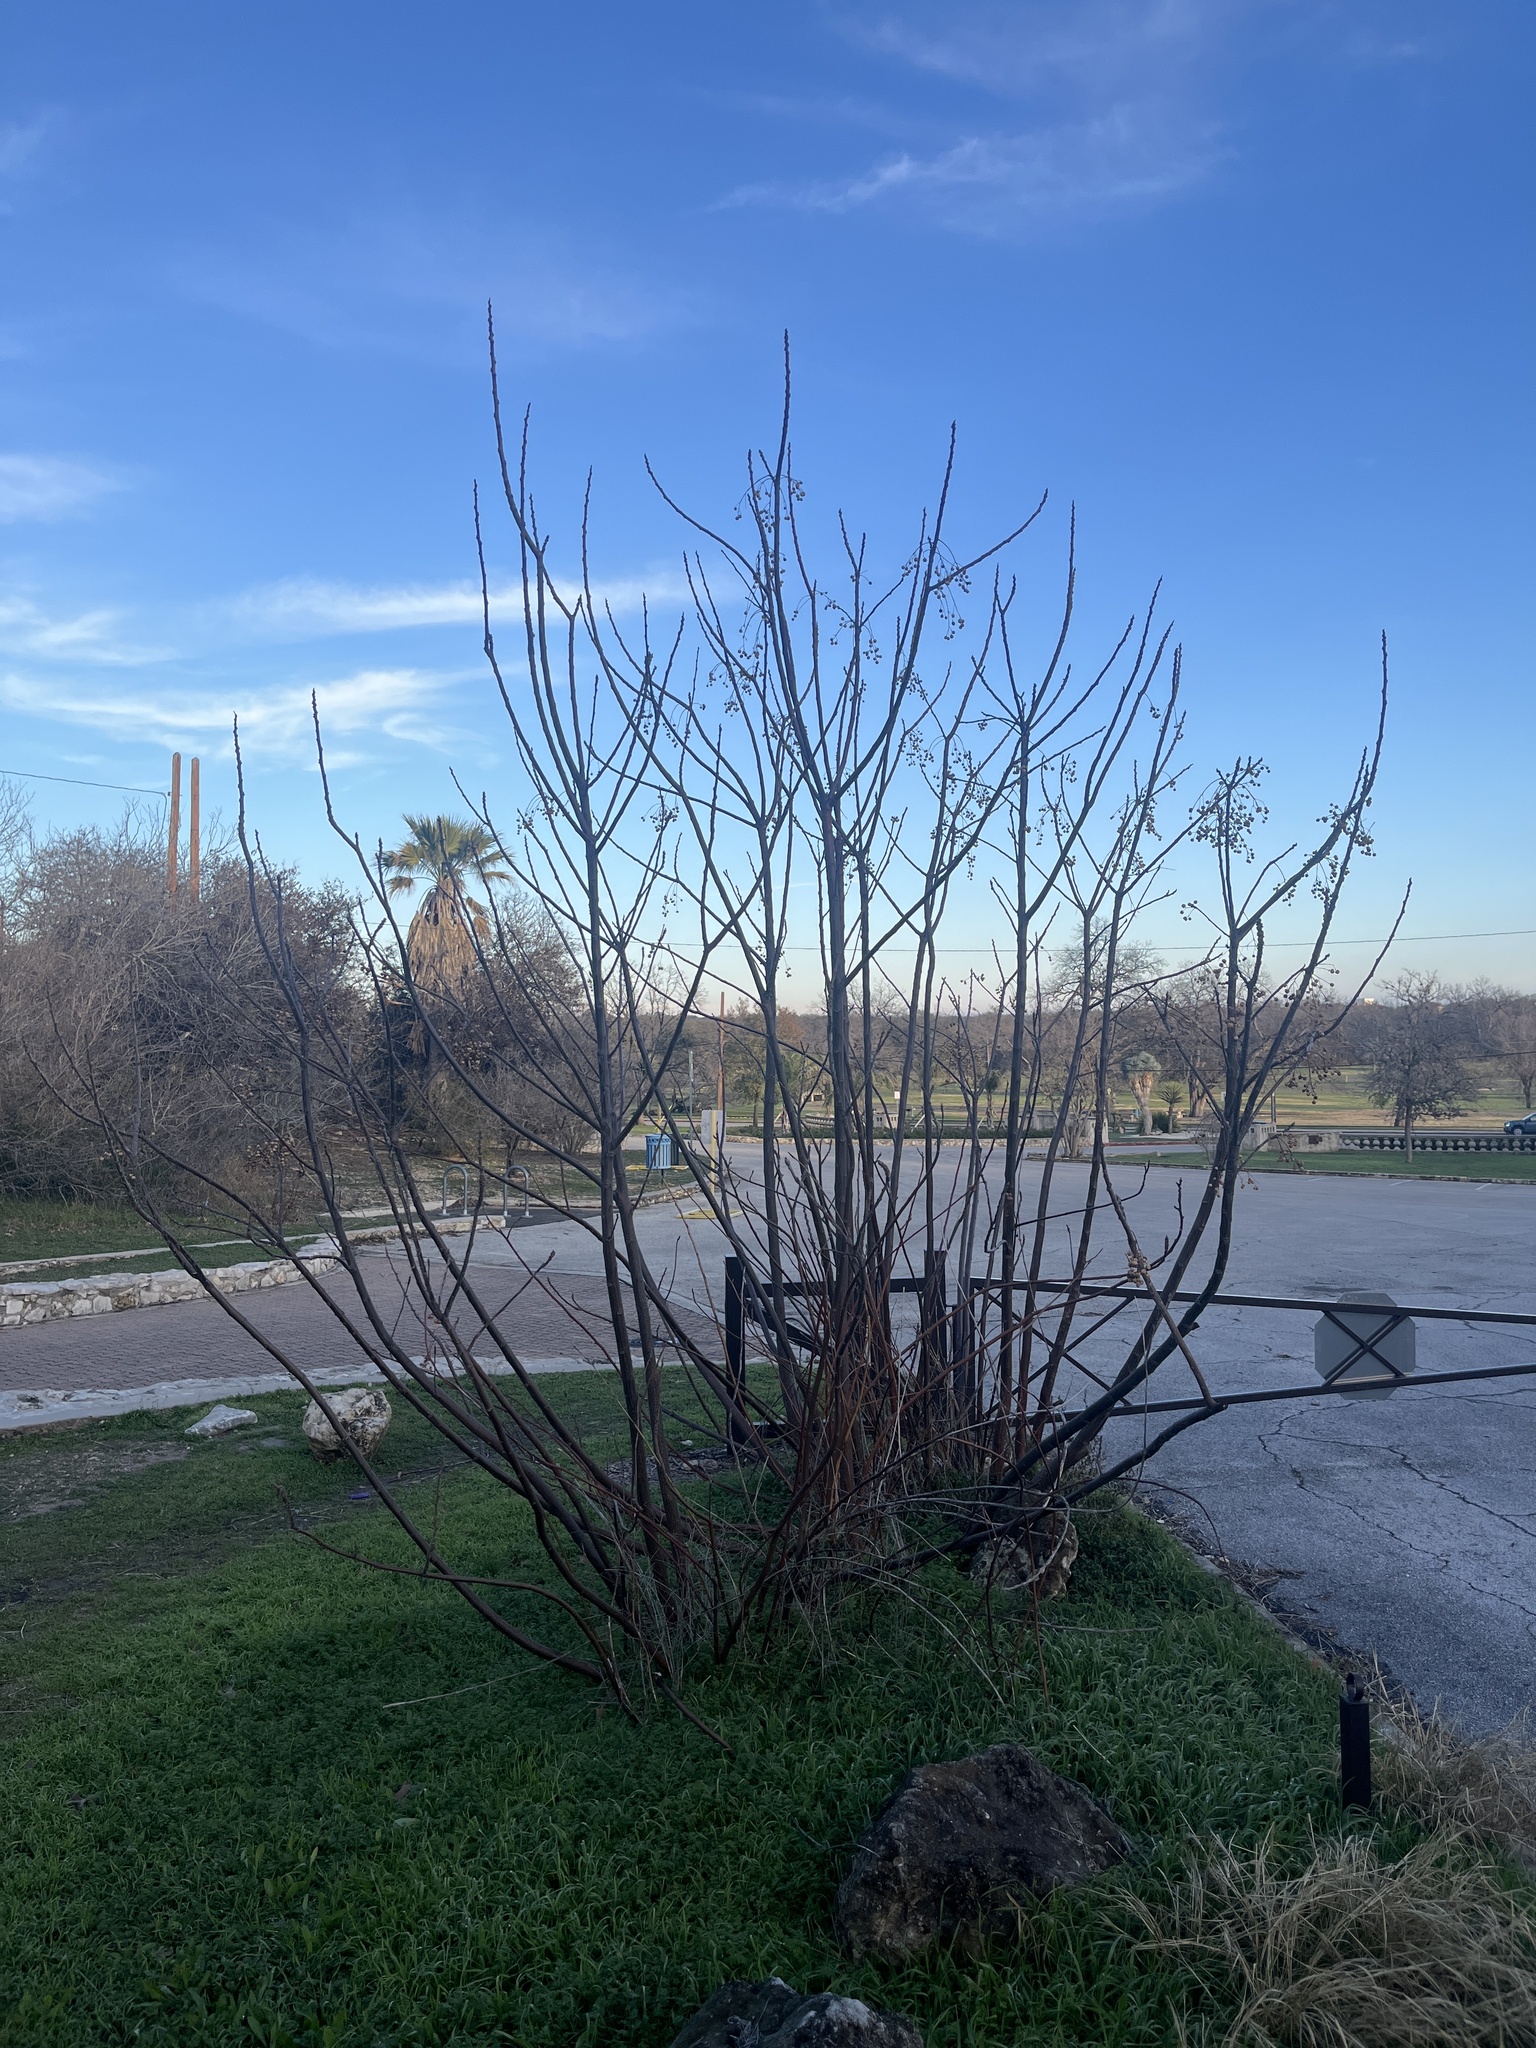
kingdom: Plantae
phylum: Tracheophyta
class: Magnoliopsida
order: Sapindales
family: Meliaceae
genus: Melia
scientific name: Melia azedarach
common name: Chinaberrytree
